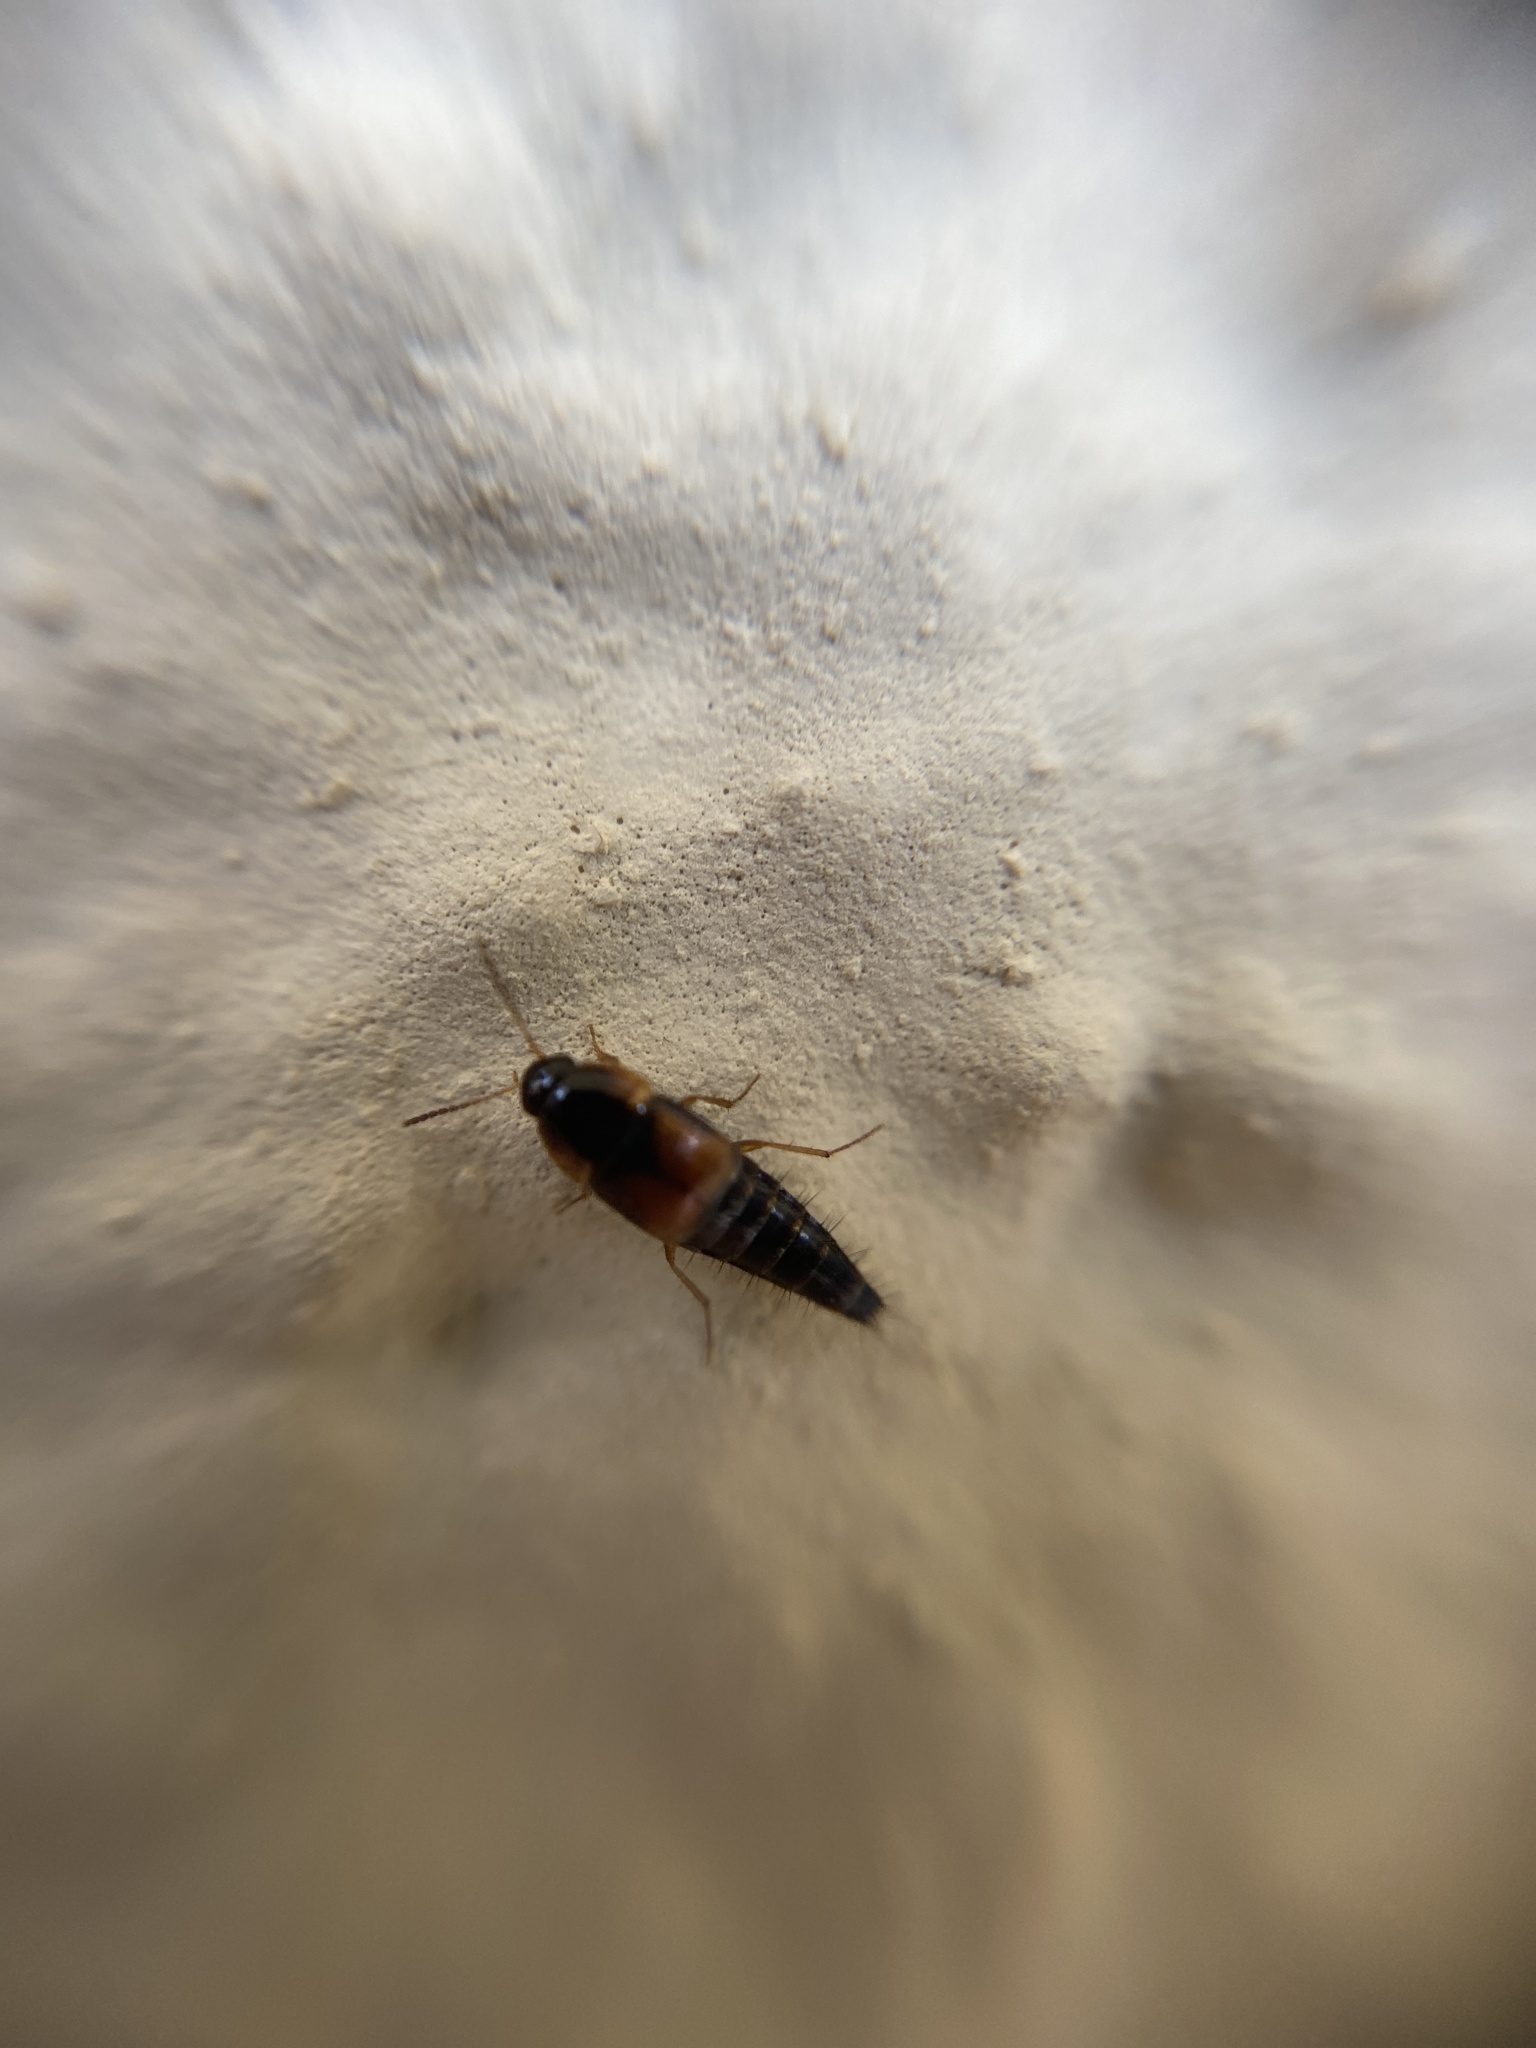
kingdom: Animalia
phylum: Arthropoda
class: Insecta
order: Coleoptera
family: Staphylinidae
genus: Tachyporus
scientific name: Tachyporus hypnorum
